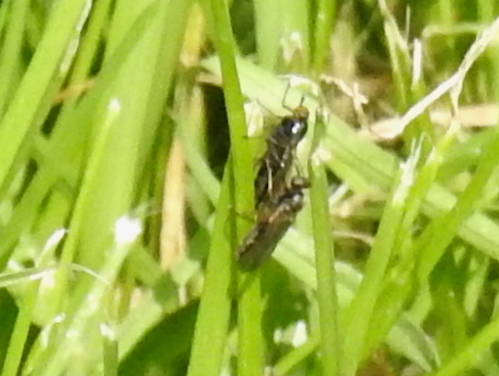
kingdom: Animalia
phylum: Arthropoda
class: Insecta
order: Diptera
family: Stratiomyidae
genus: Inopus
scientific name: Inopus rubriceps
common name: Soldier fly
